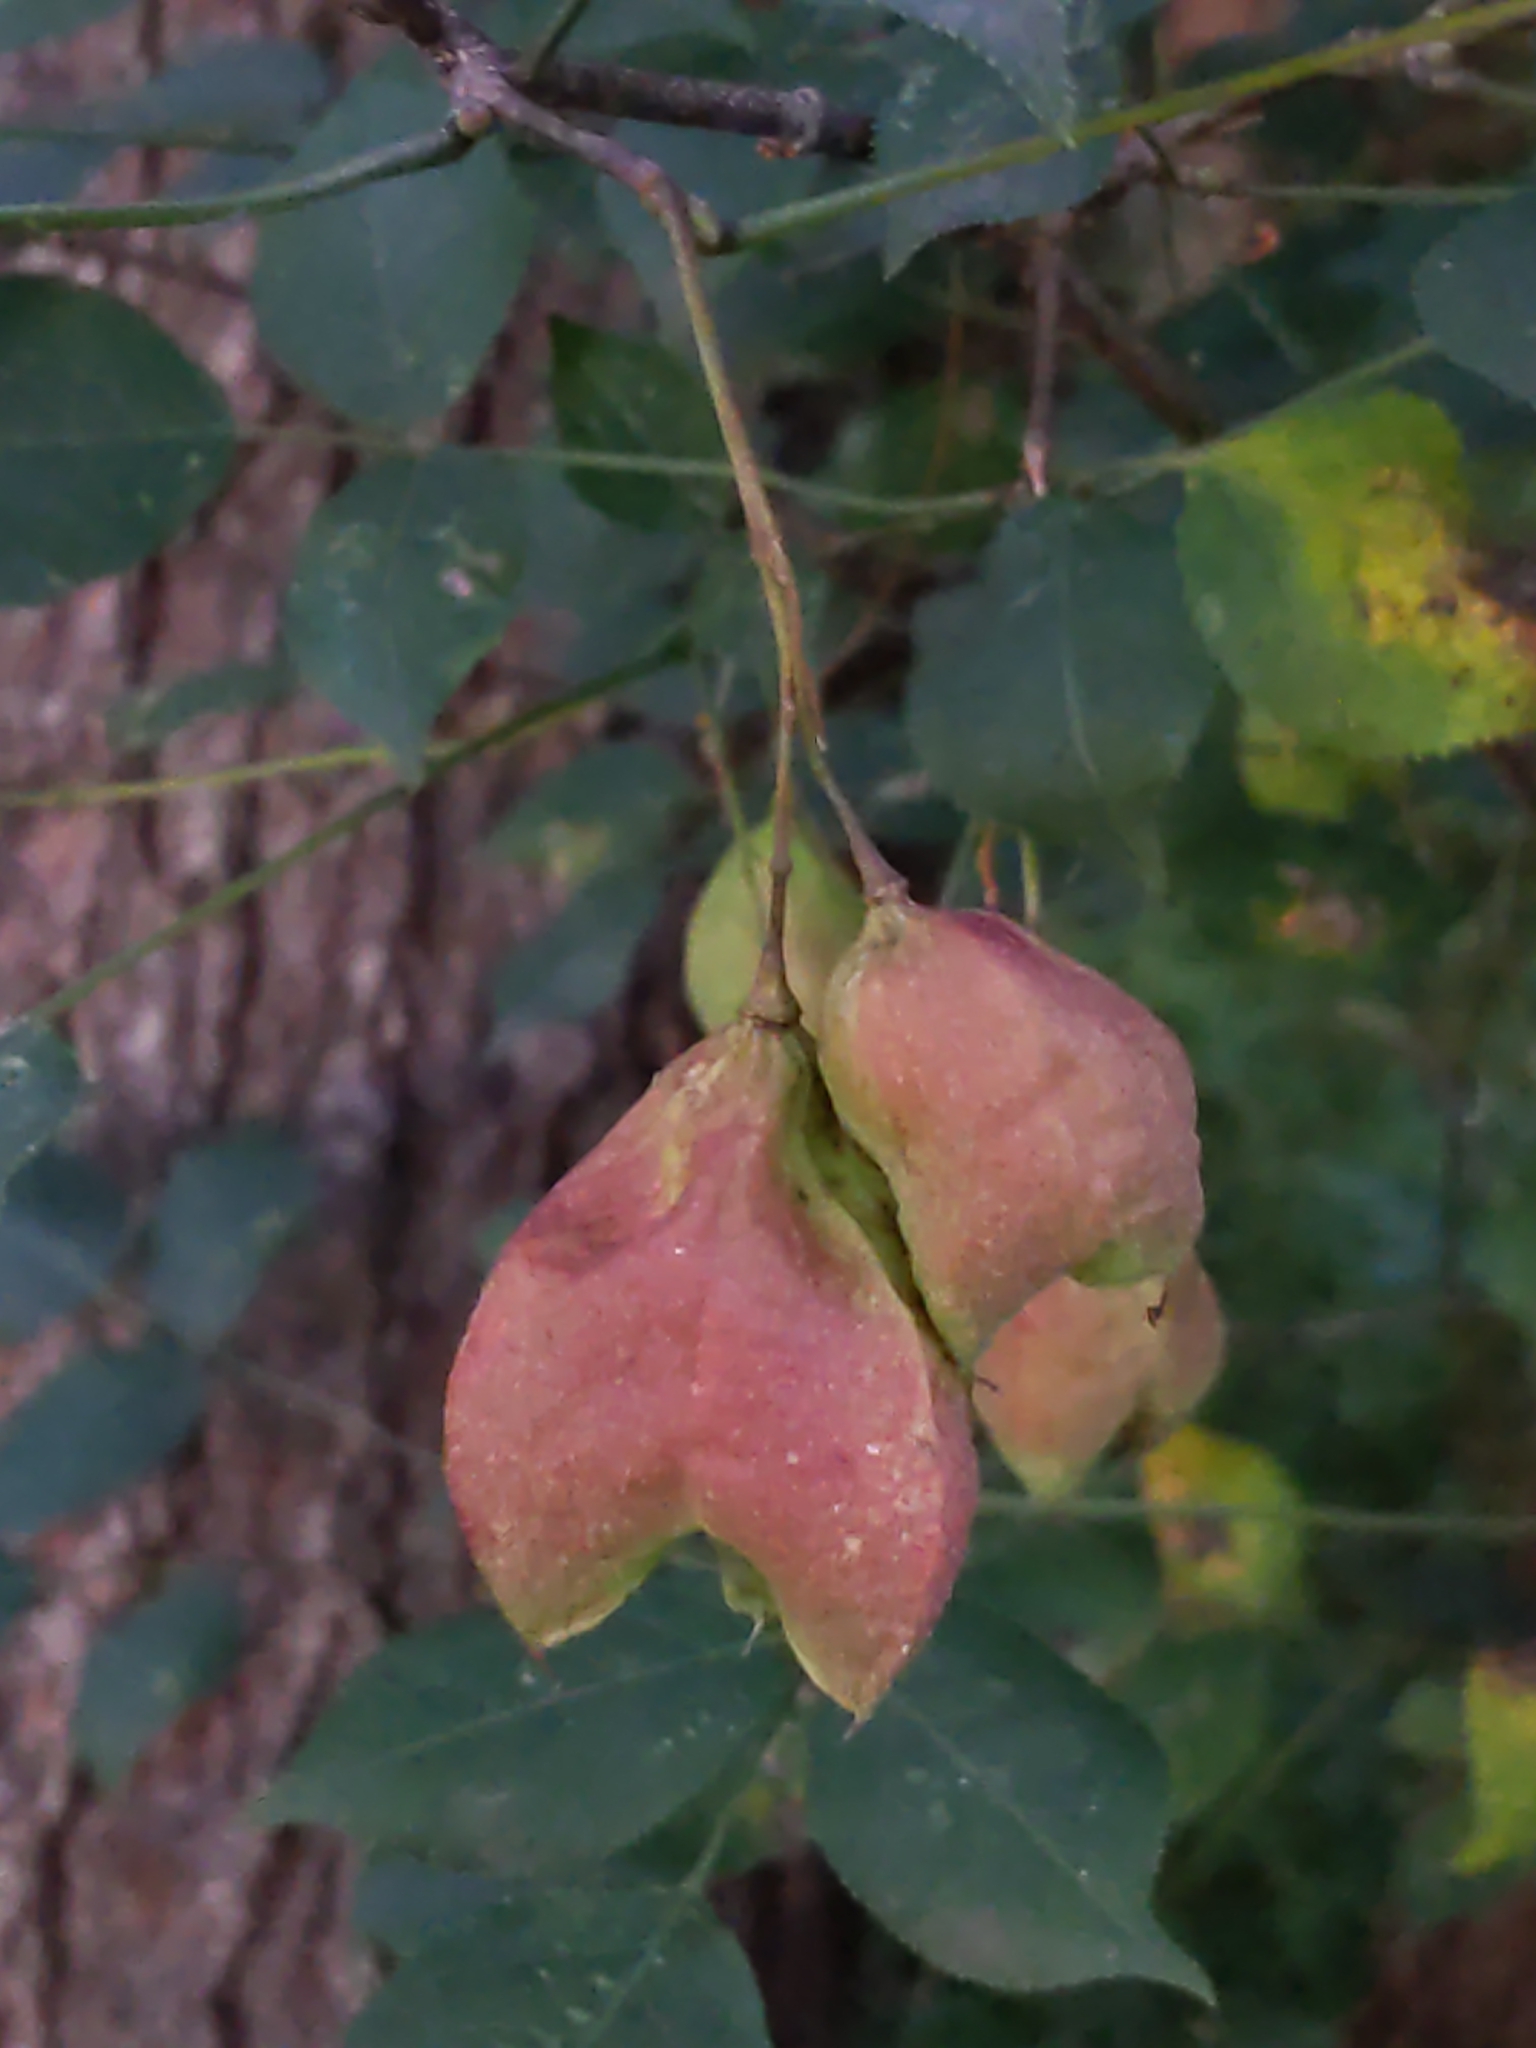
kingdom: Plantae
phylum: Tracheophyta
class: Magnoliopsida
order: Crossosomatales
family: Staphyleaceae
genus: Staphylea
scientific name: Staphylea trifolia
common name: American bladdernut
